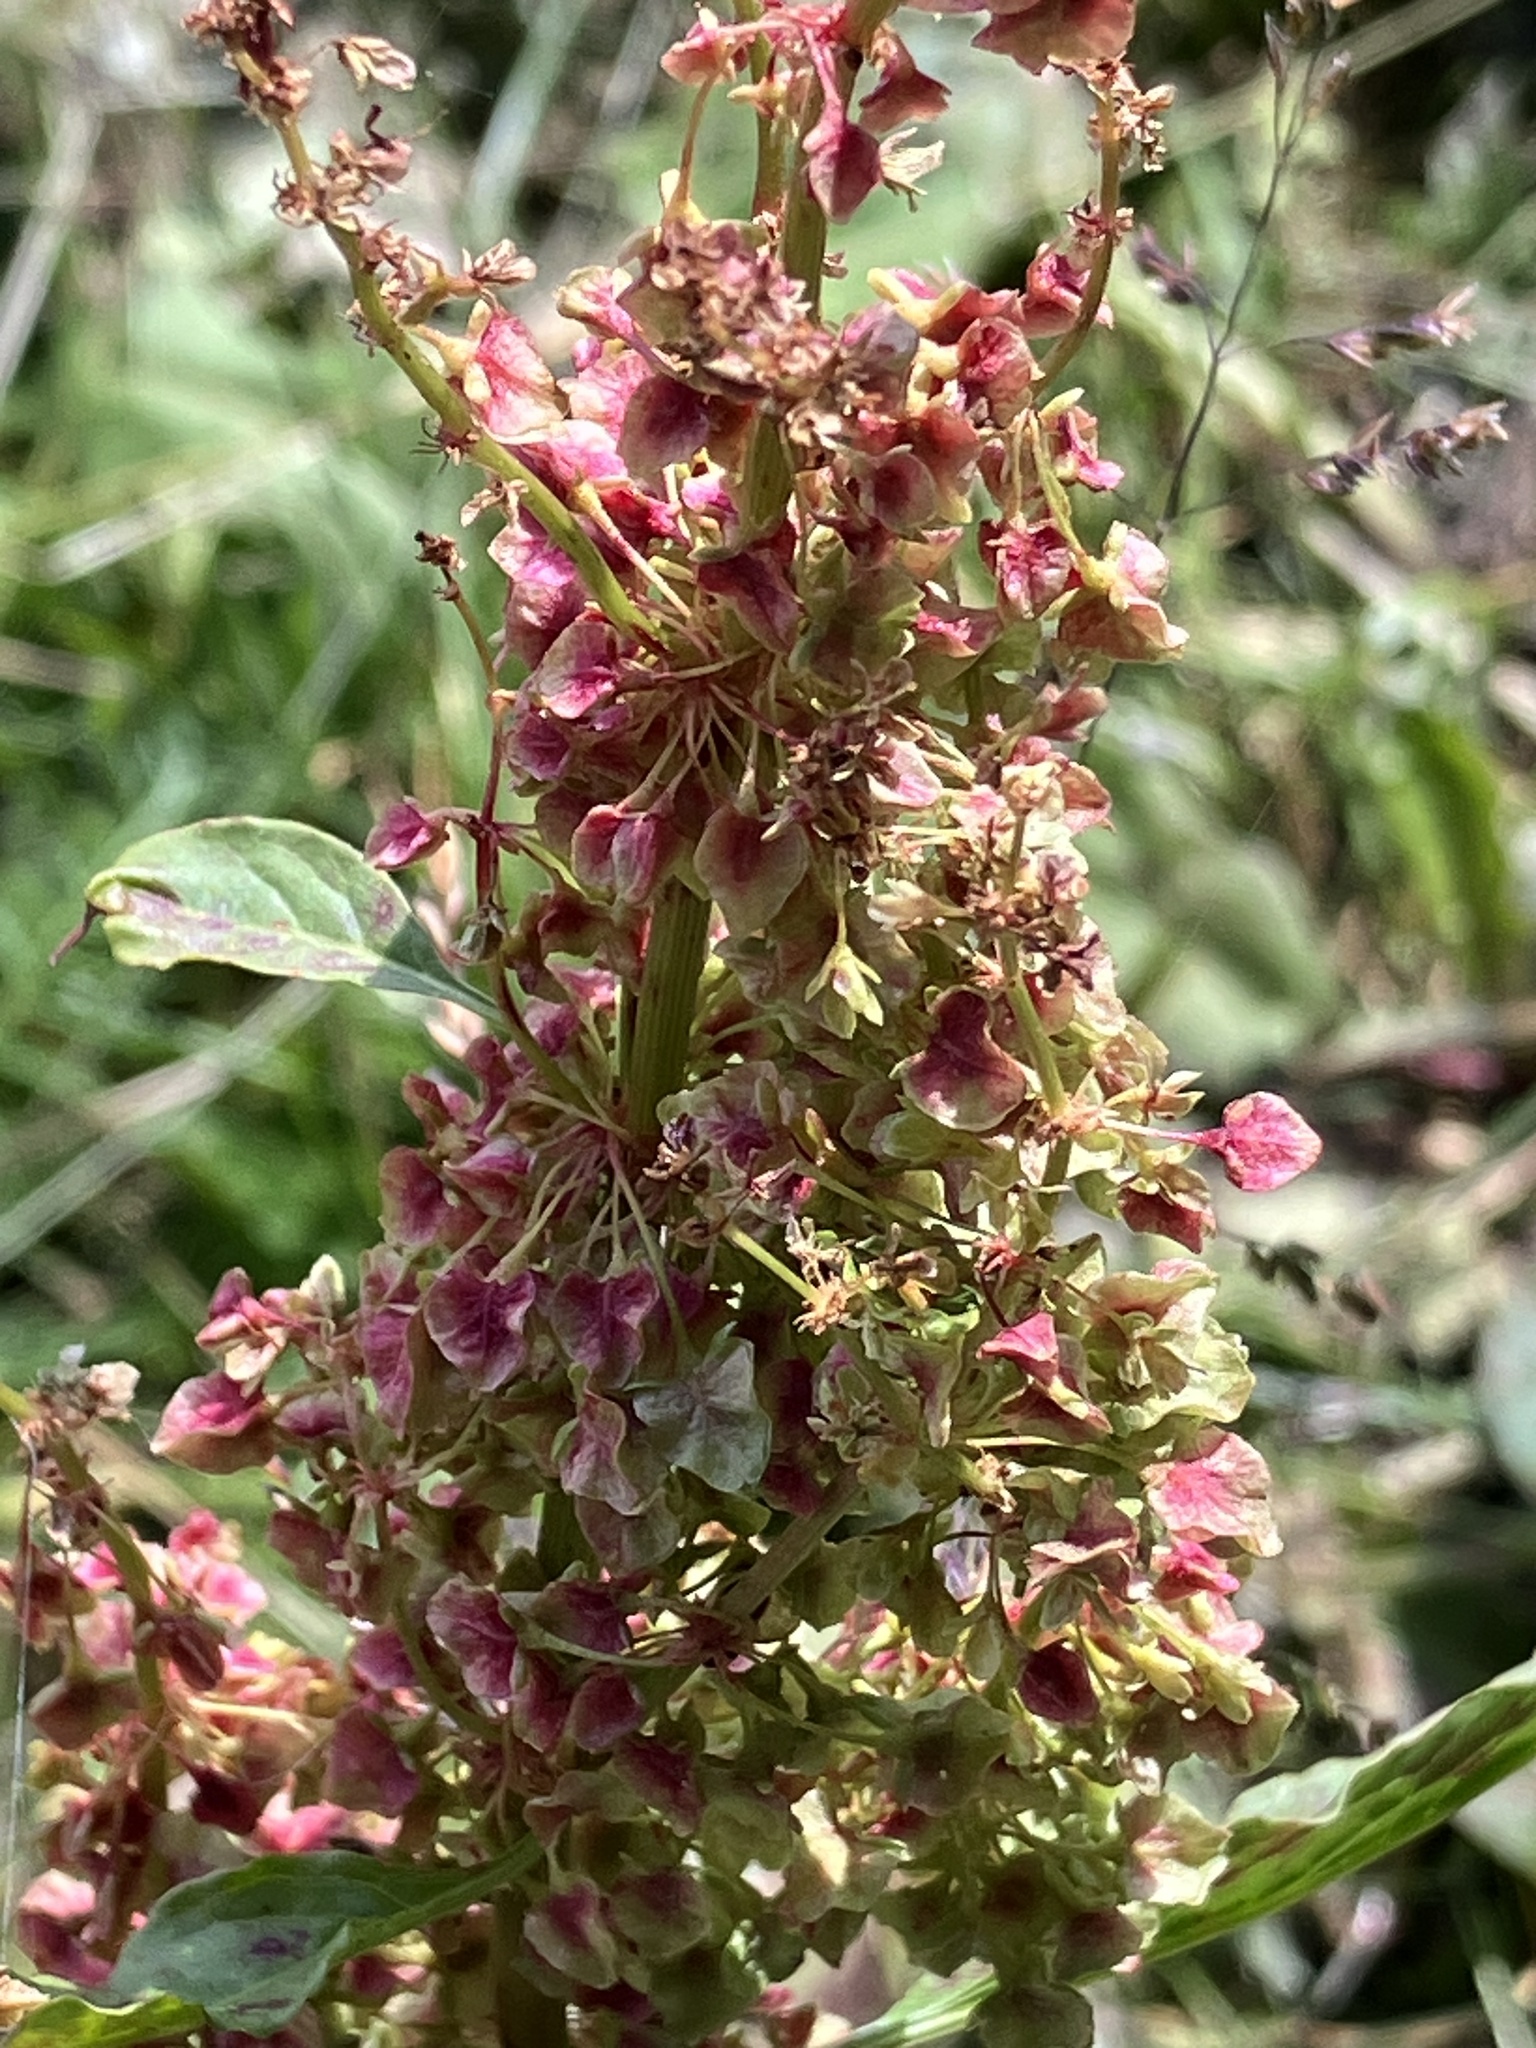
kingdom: Plantae
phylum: Tracheophyta
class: Magnoliopsida
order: Caryophyllales
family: Polygonaceae
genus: Rumex
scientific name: Rumex alpinus
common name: Alpine dock
